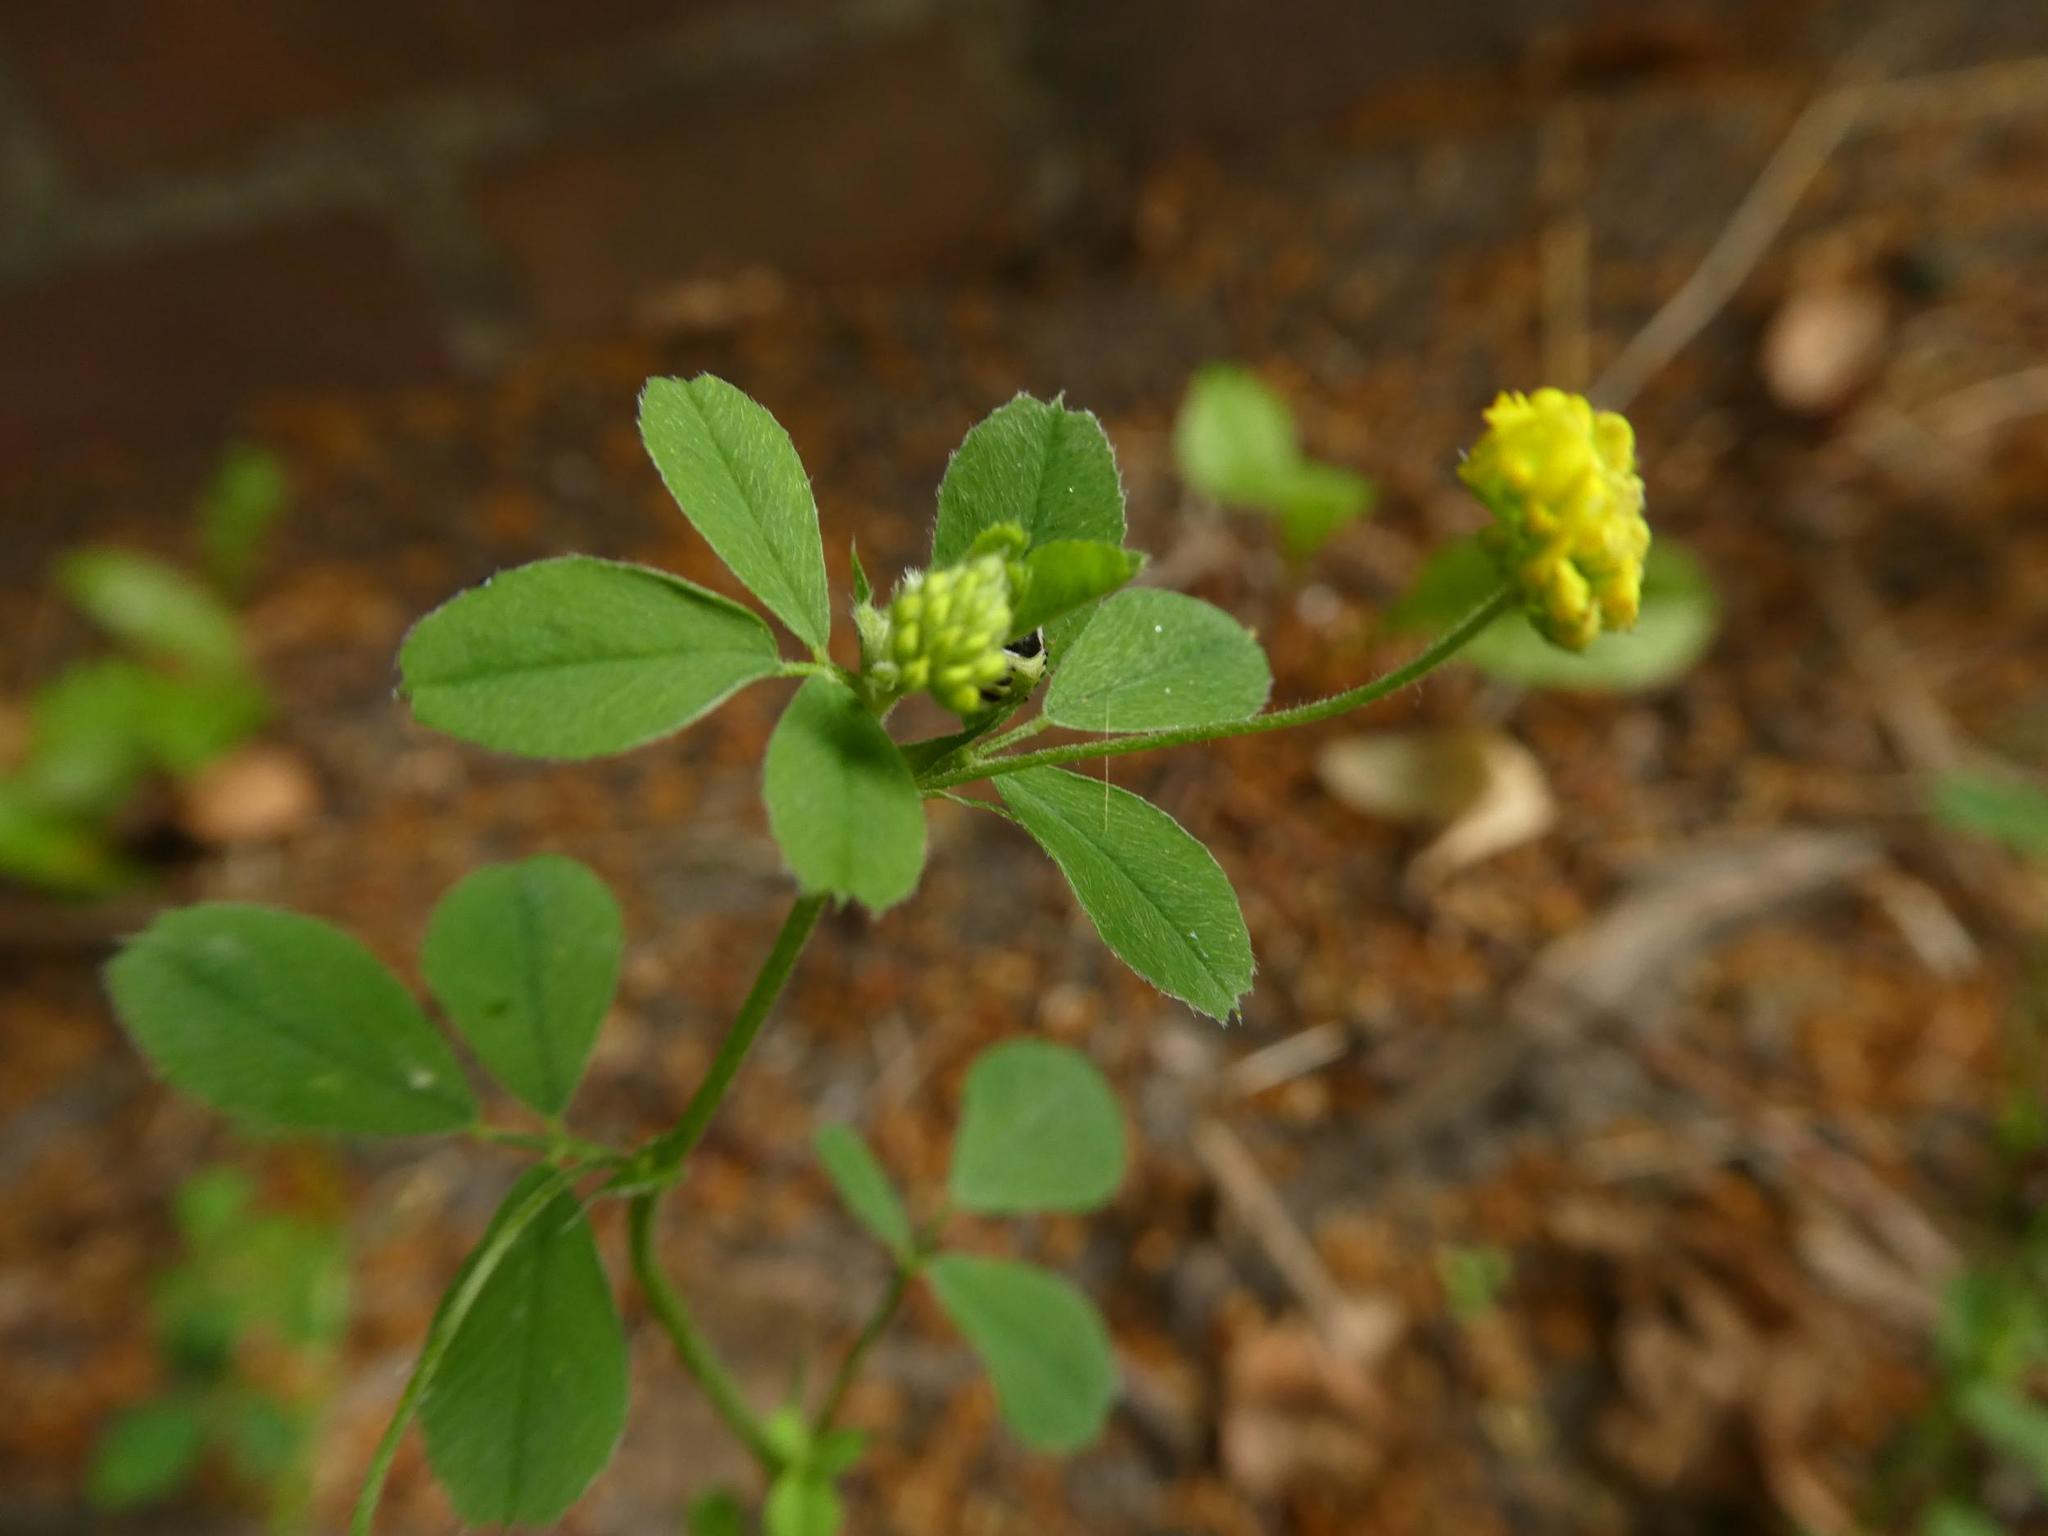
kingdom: Plantae
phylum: Tracheophyta
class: Magnoliopsida
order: Fabales
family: Fabaceae
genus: Medicago
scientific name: Medicago lupulina
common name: Black medick
